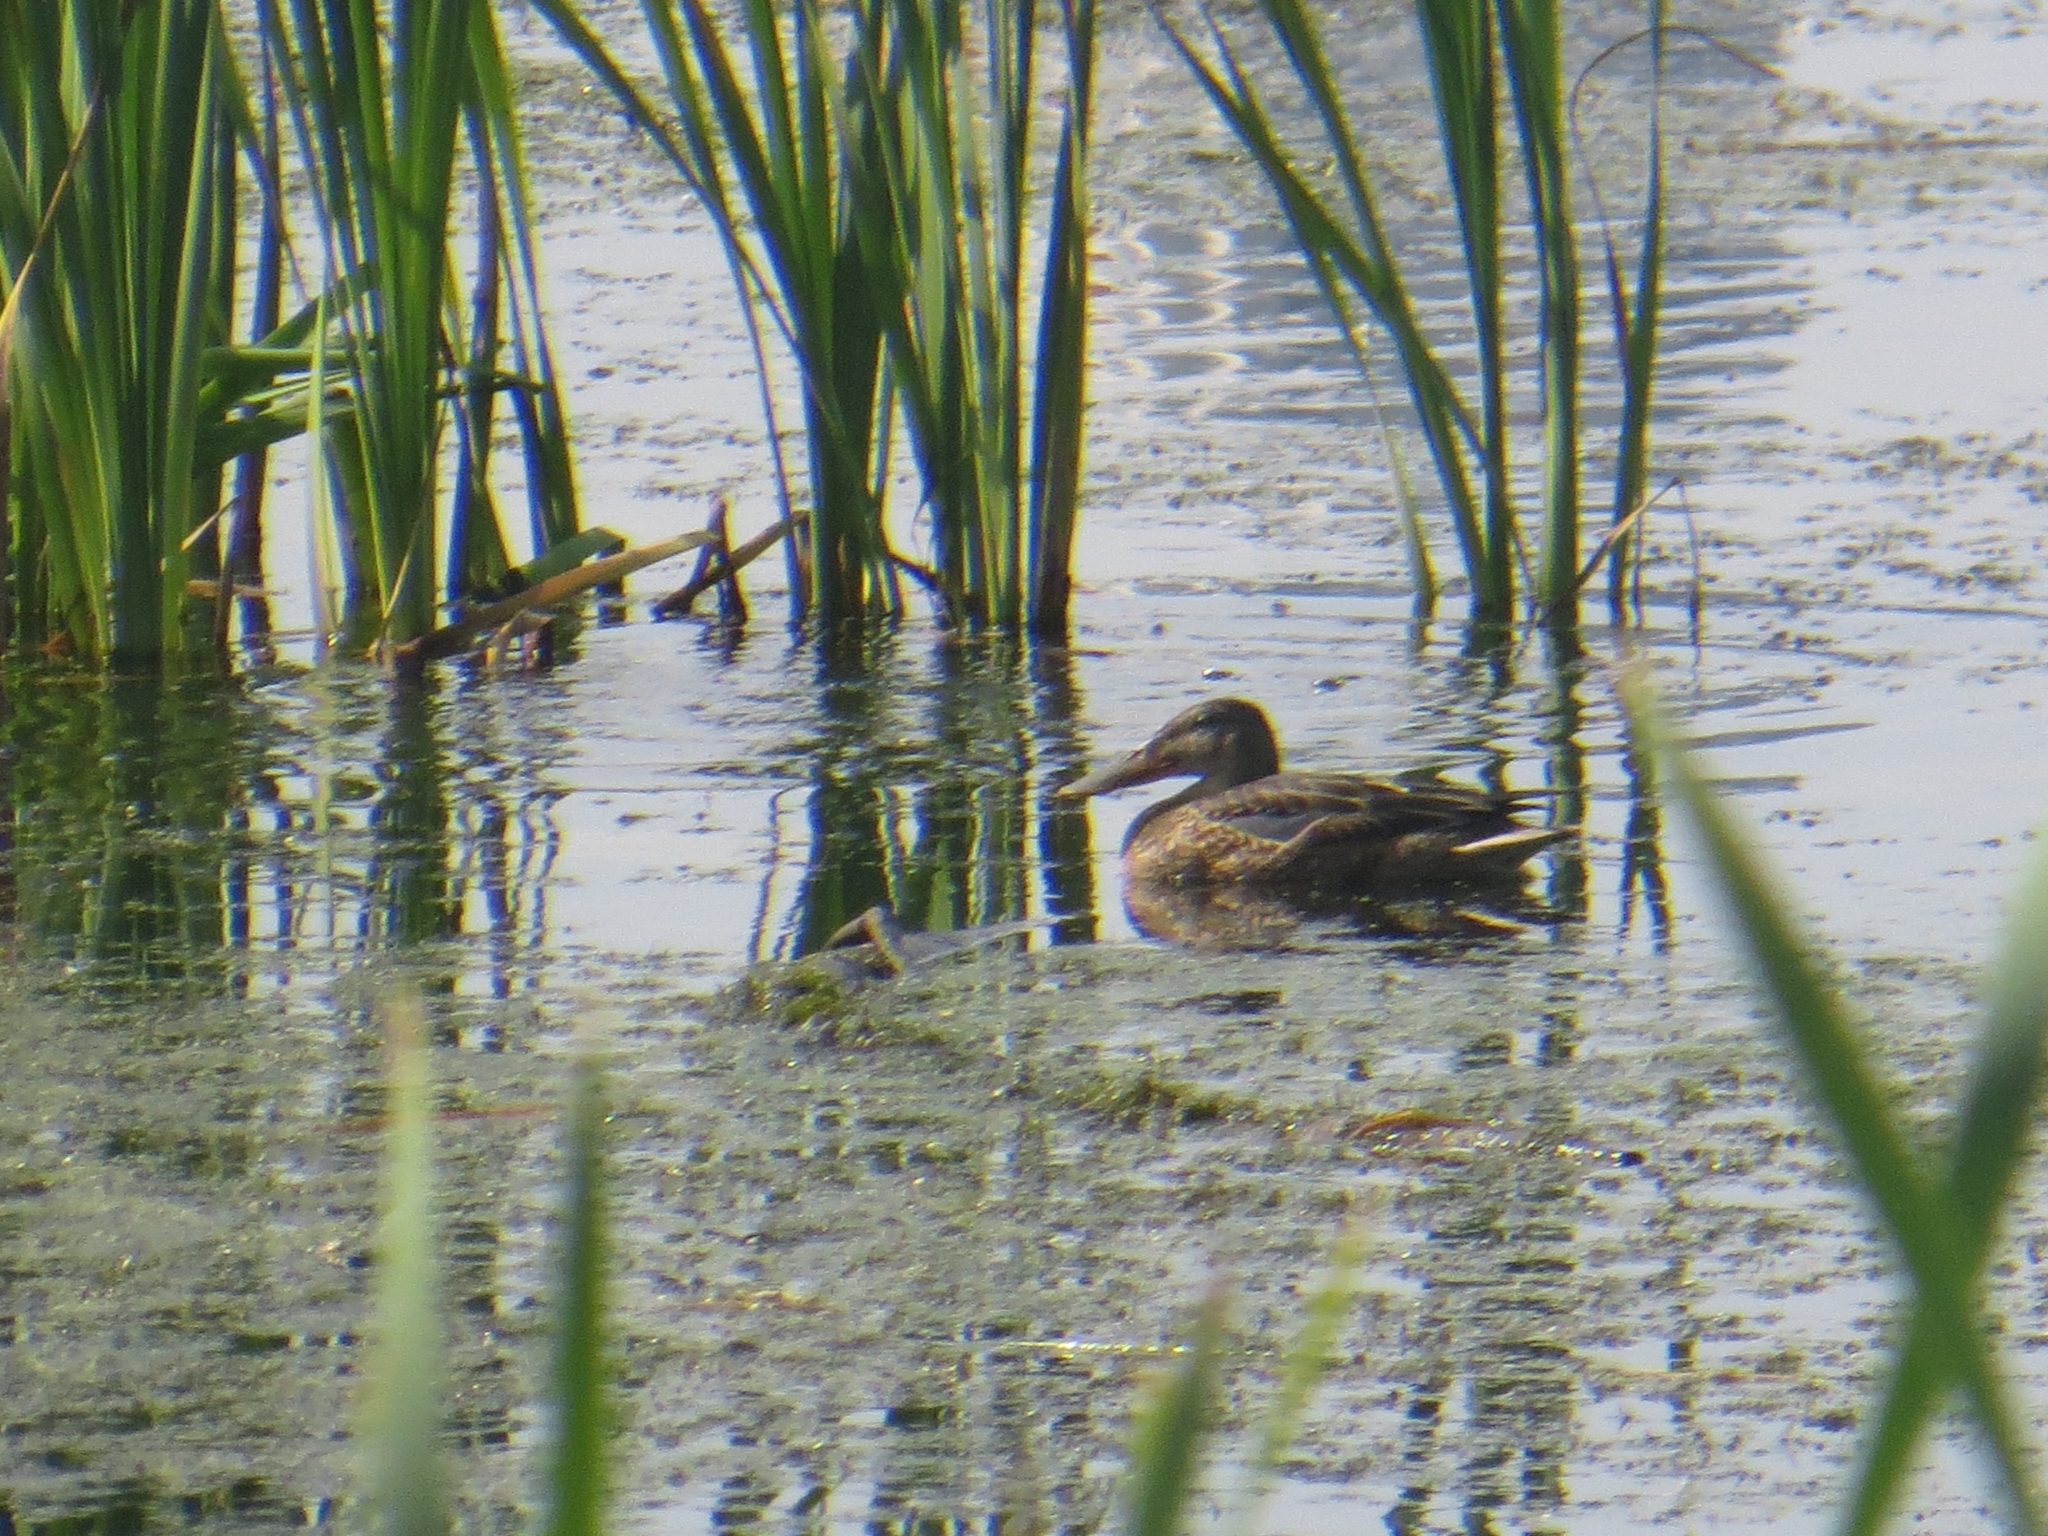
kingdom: Animalia
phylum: Chordata
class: Aves
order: Anseriformes
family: Anatidae
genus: Spatula
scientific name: Spatula clypeata
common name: Northern shoveler
